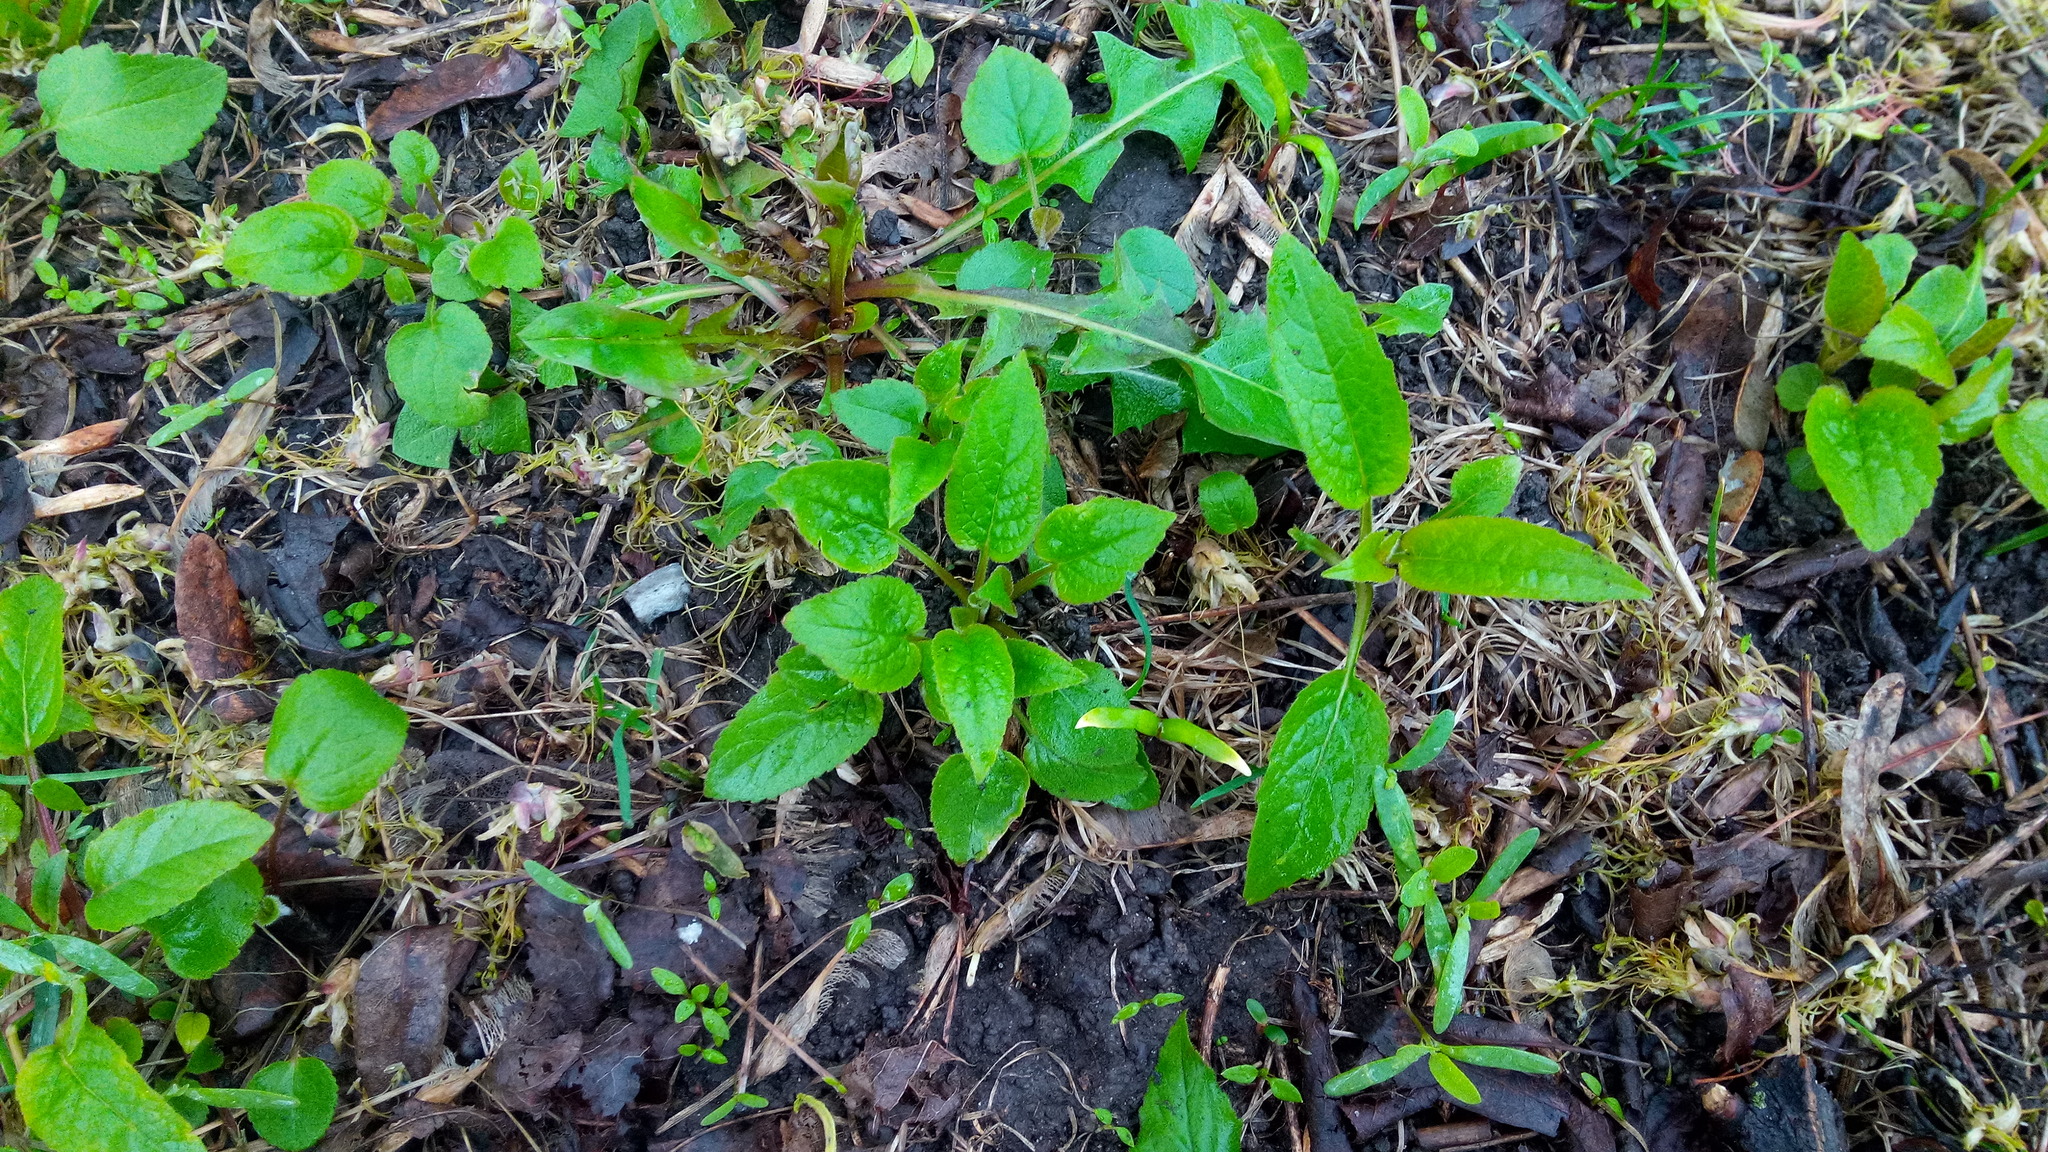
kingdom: Plantae
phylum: Tracheophyta
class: Magnoliopsida
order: Asterales
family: Campanulaceae
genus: Campanula
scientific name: Campanula rapunculoides
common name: Creeping bellflower
